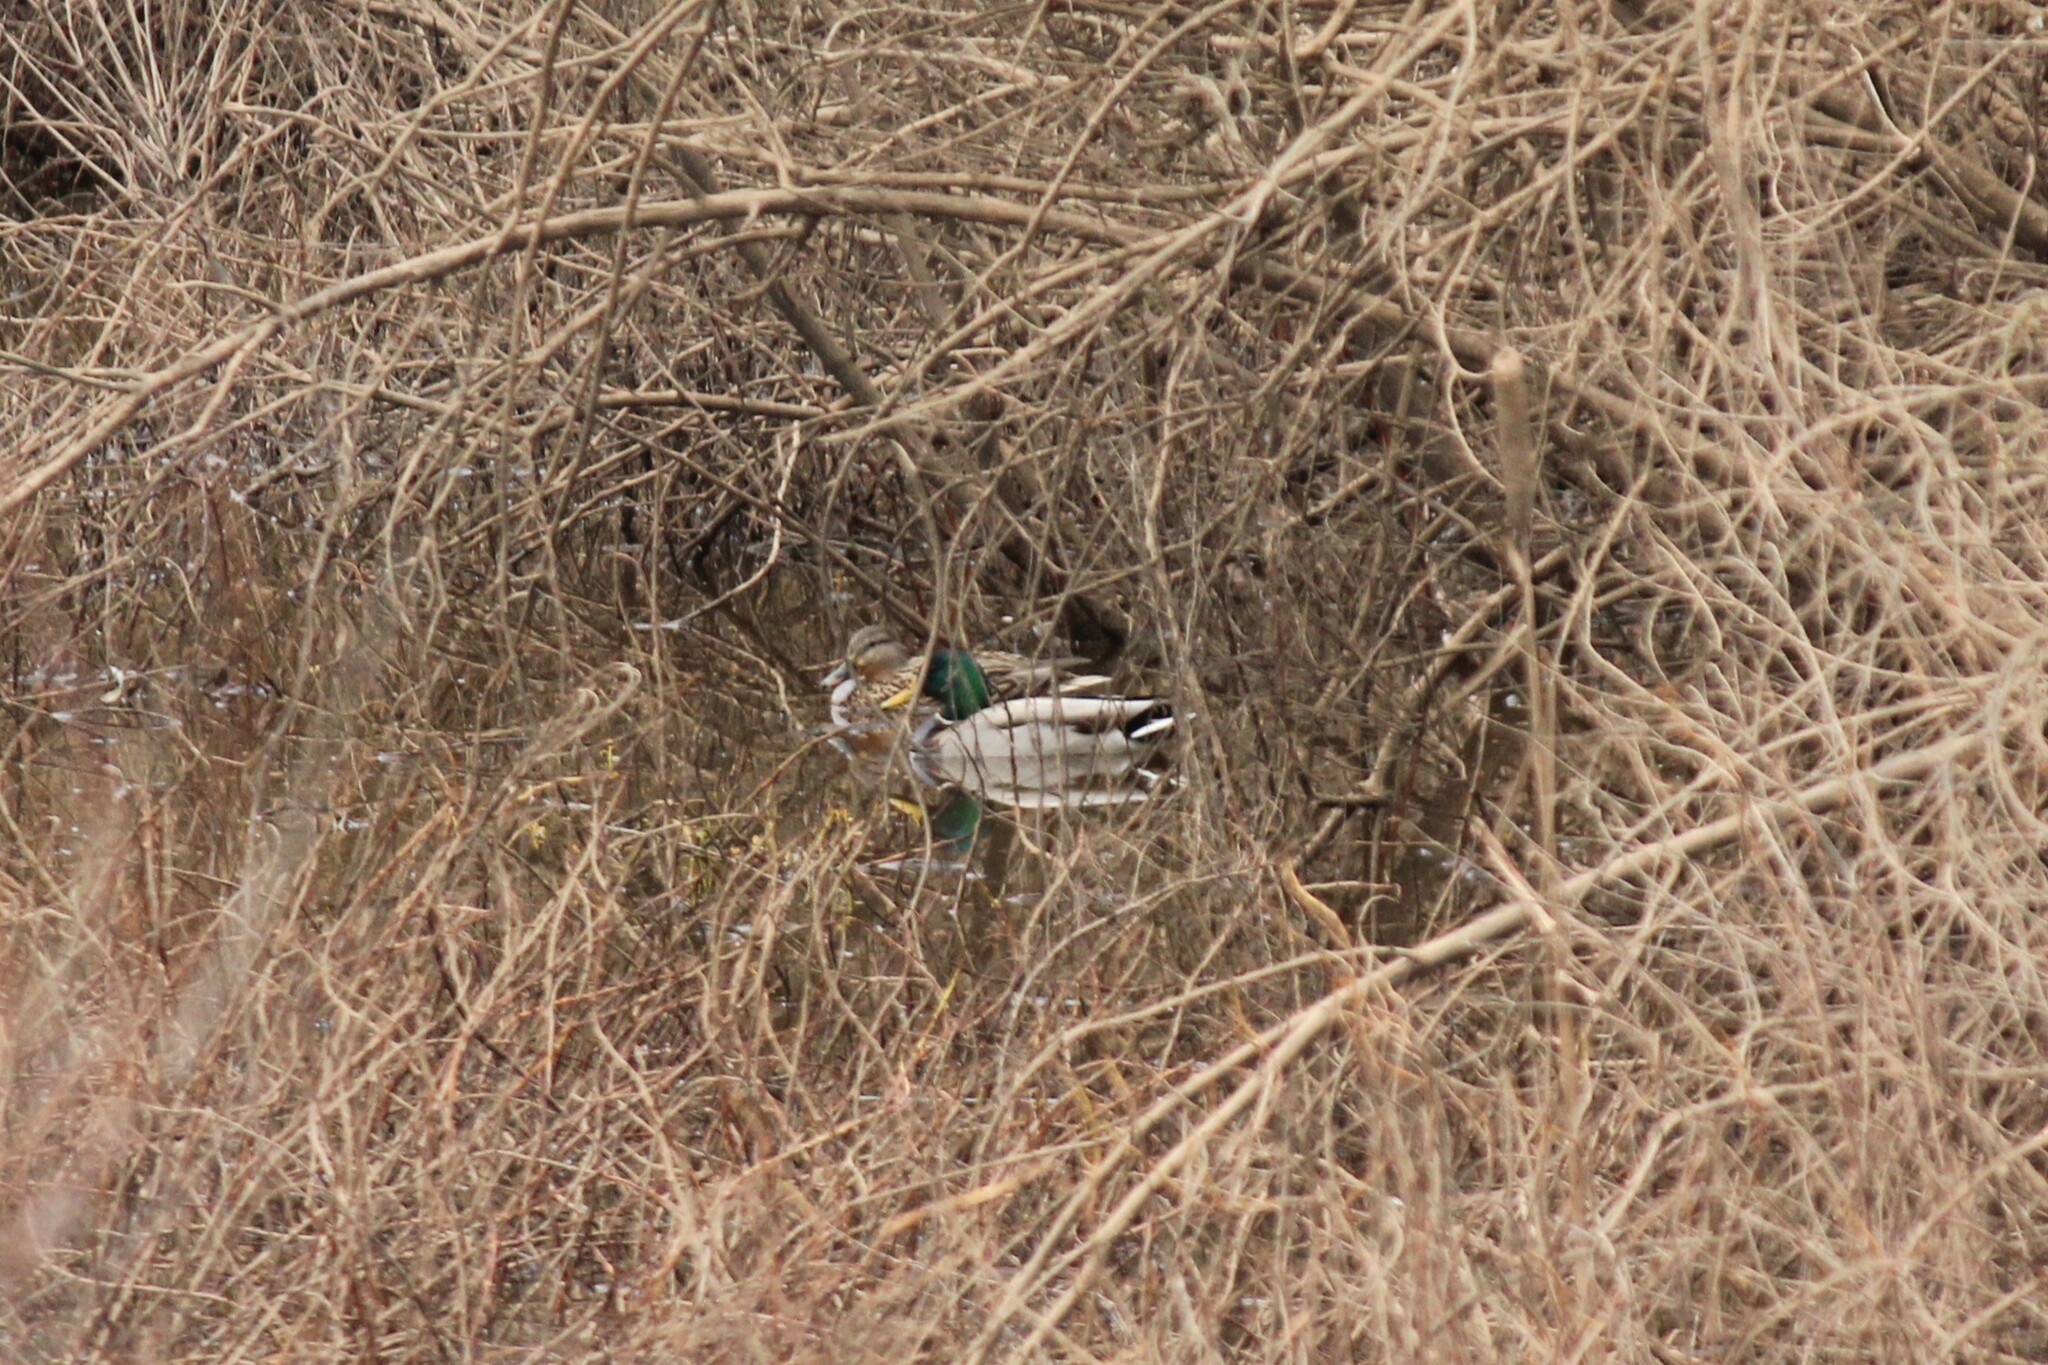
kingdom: Animalia
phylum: Chordata
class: Aves
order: Anseriformes
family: Anatidae
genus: Anas
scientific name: Anas platyrhynchos
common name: Mallard
